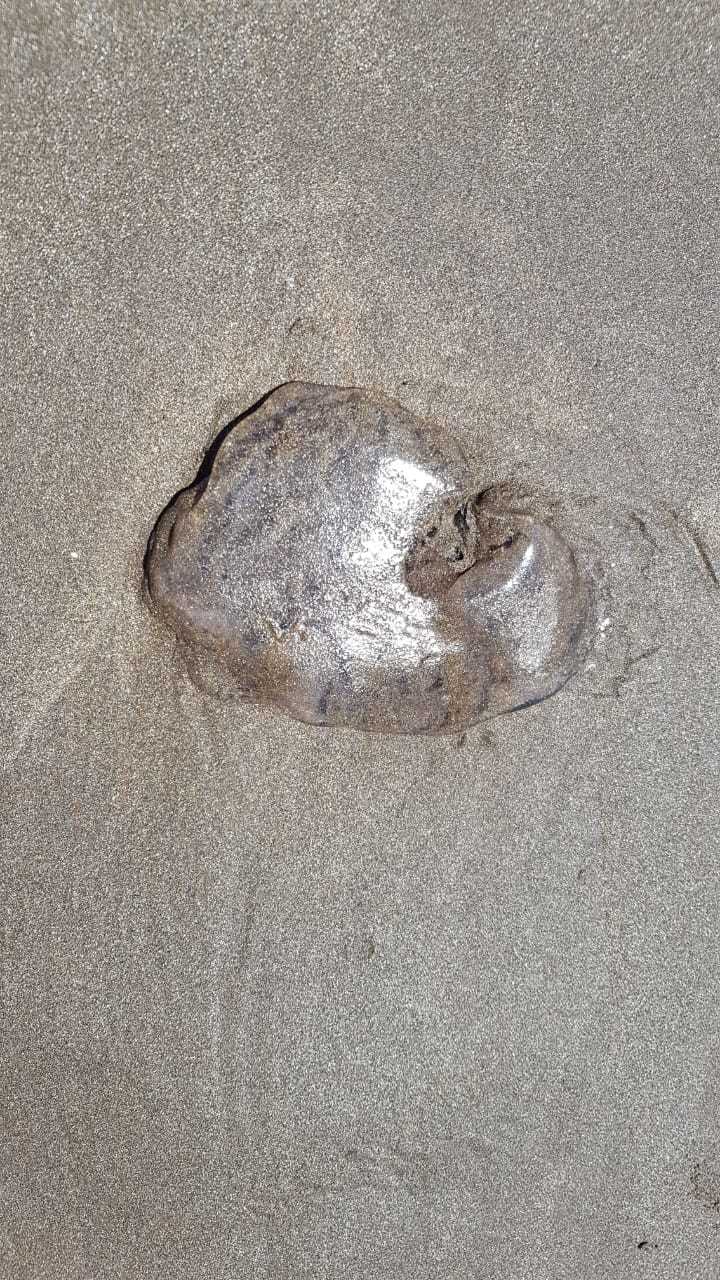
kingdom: Animalia
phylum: Ctenophora
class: Tentaculata
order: Lobata
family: Bolinopsidae
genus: Mnemiopsis
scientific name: Mnemiopsis leidyi
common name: American comb jelly
